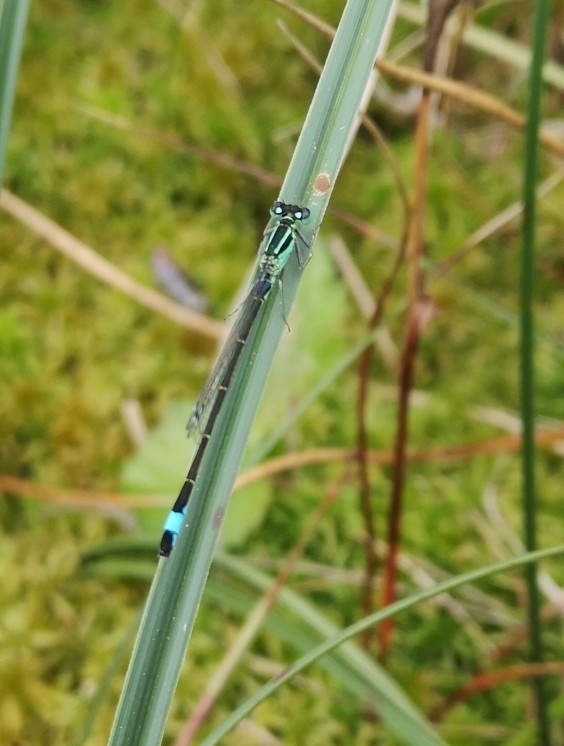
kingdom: Animalia
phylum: Arthropoda
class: Insecta
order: Odonata
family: Coenagrionidae
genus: Ischnura
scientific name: Ischnura elegans
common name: Blue-tailed damselfly
